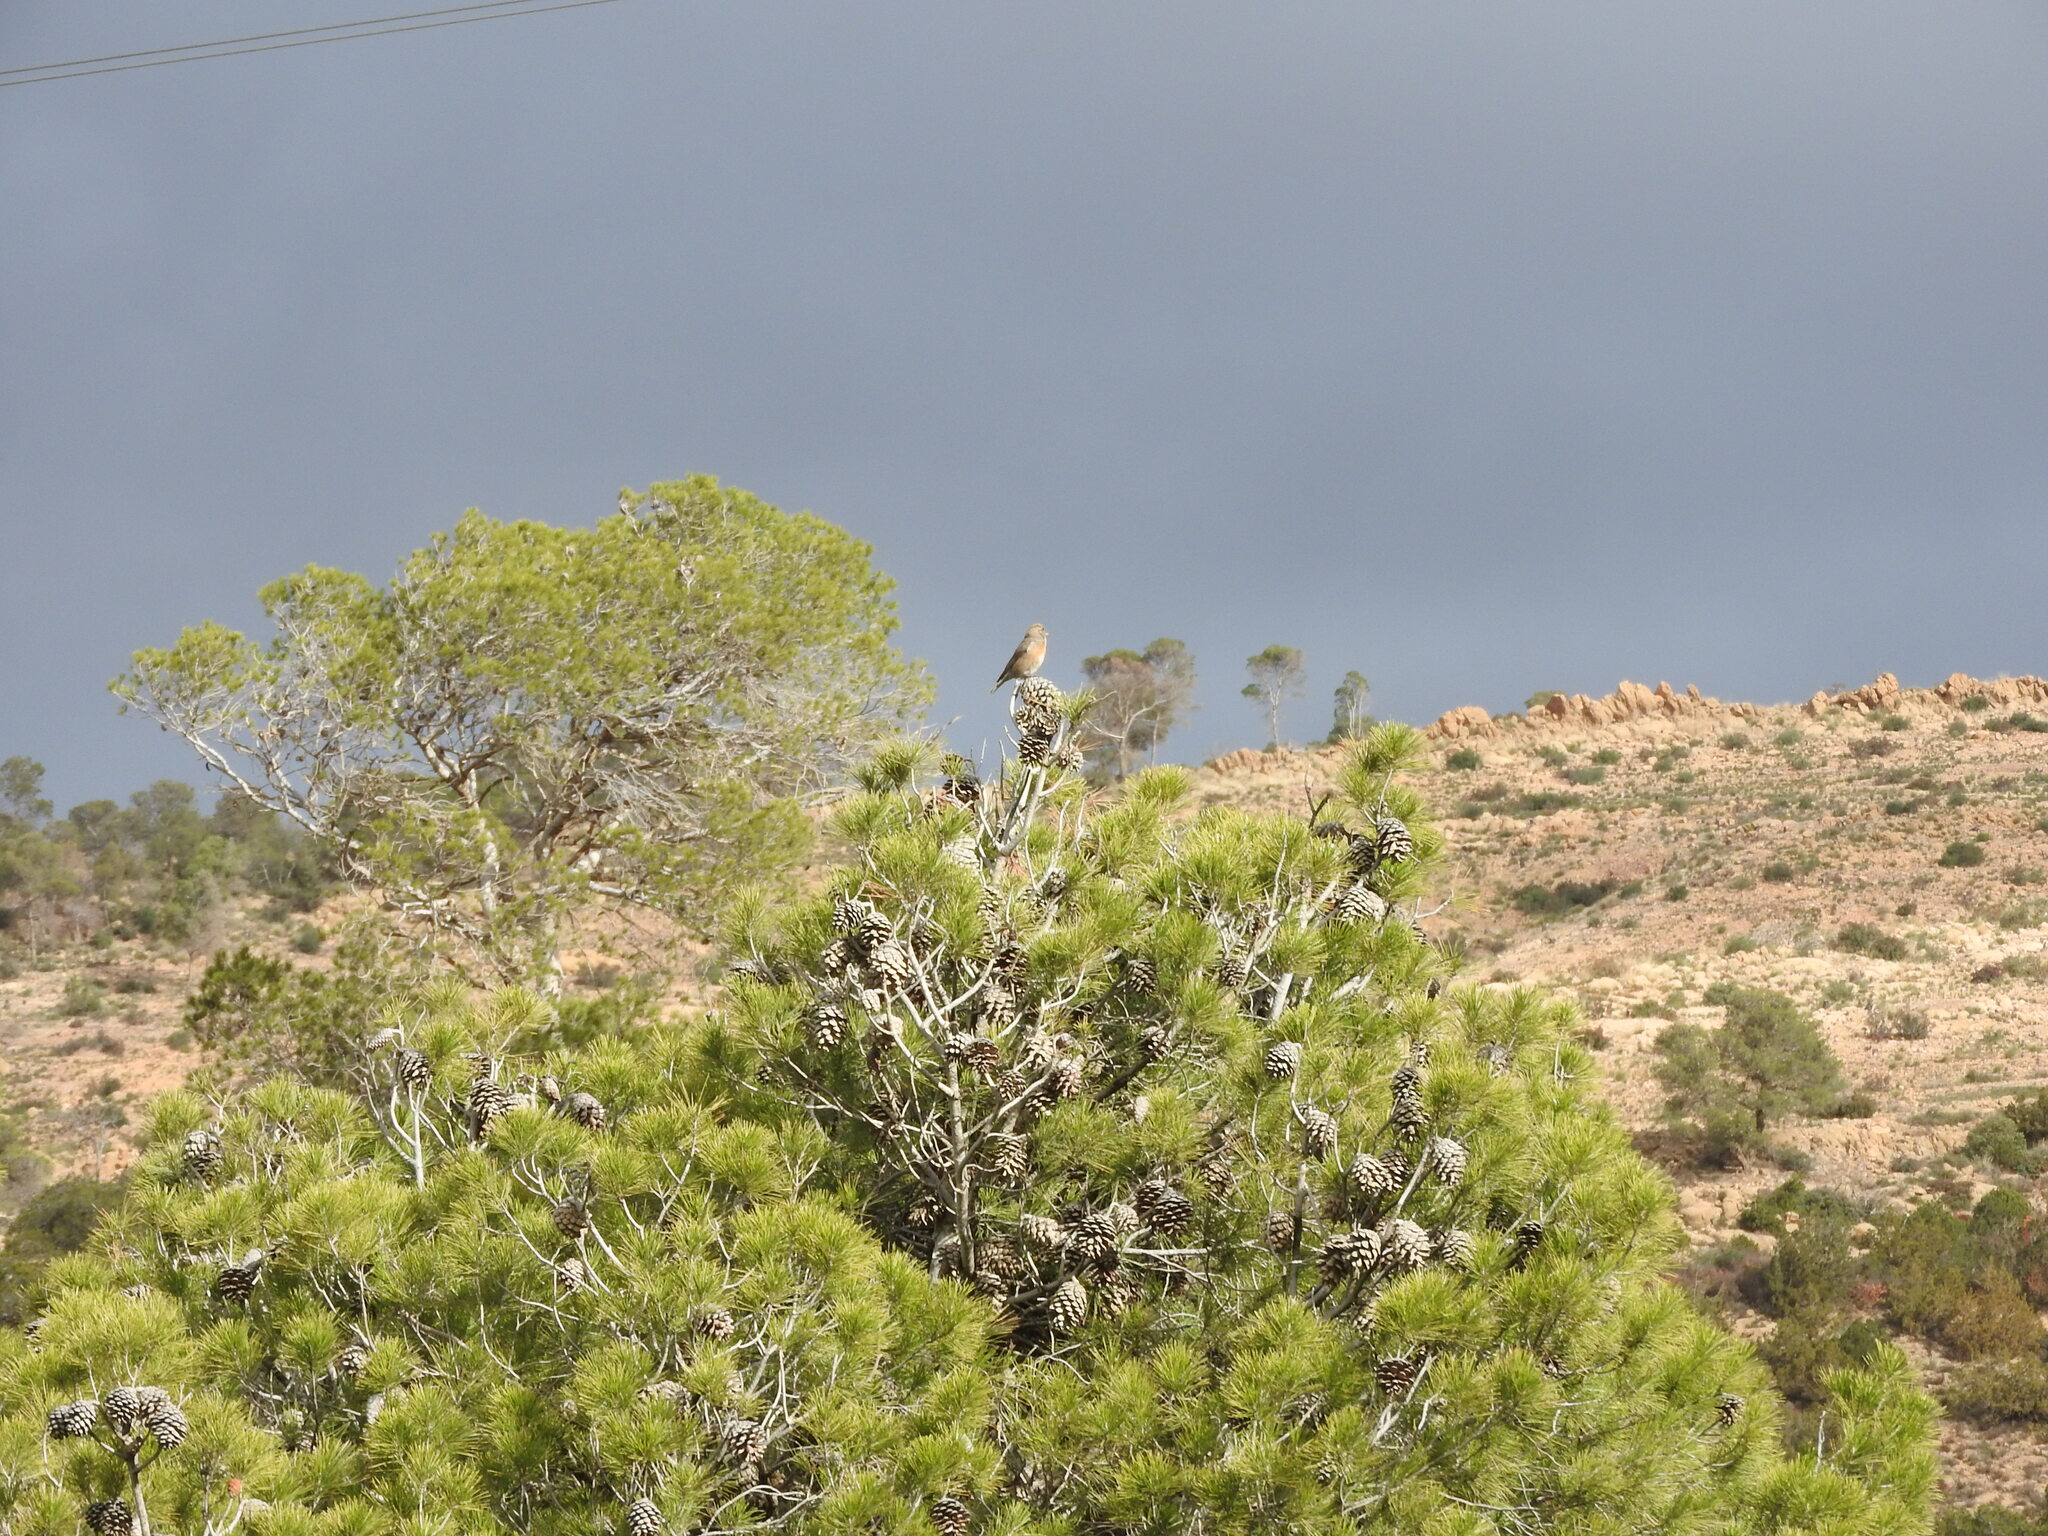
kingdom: Animalia
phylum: Chordata
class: Aves
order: Passeriformes
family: Fringillidae
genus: Loxia
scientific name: Loxia curvirostra
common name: Red crossbill
